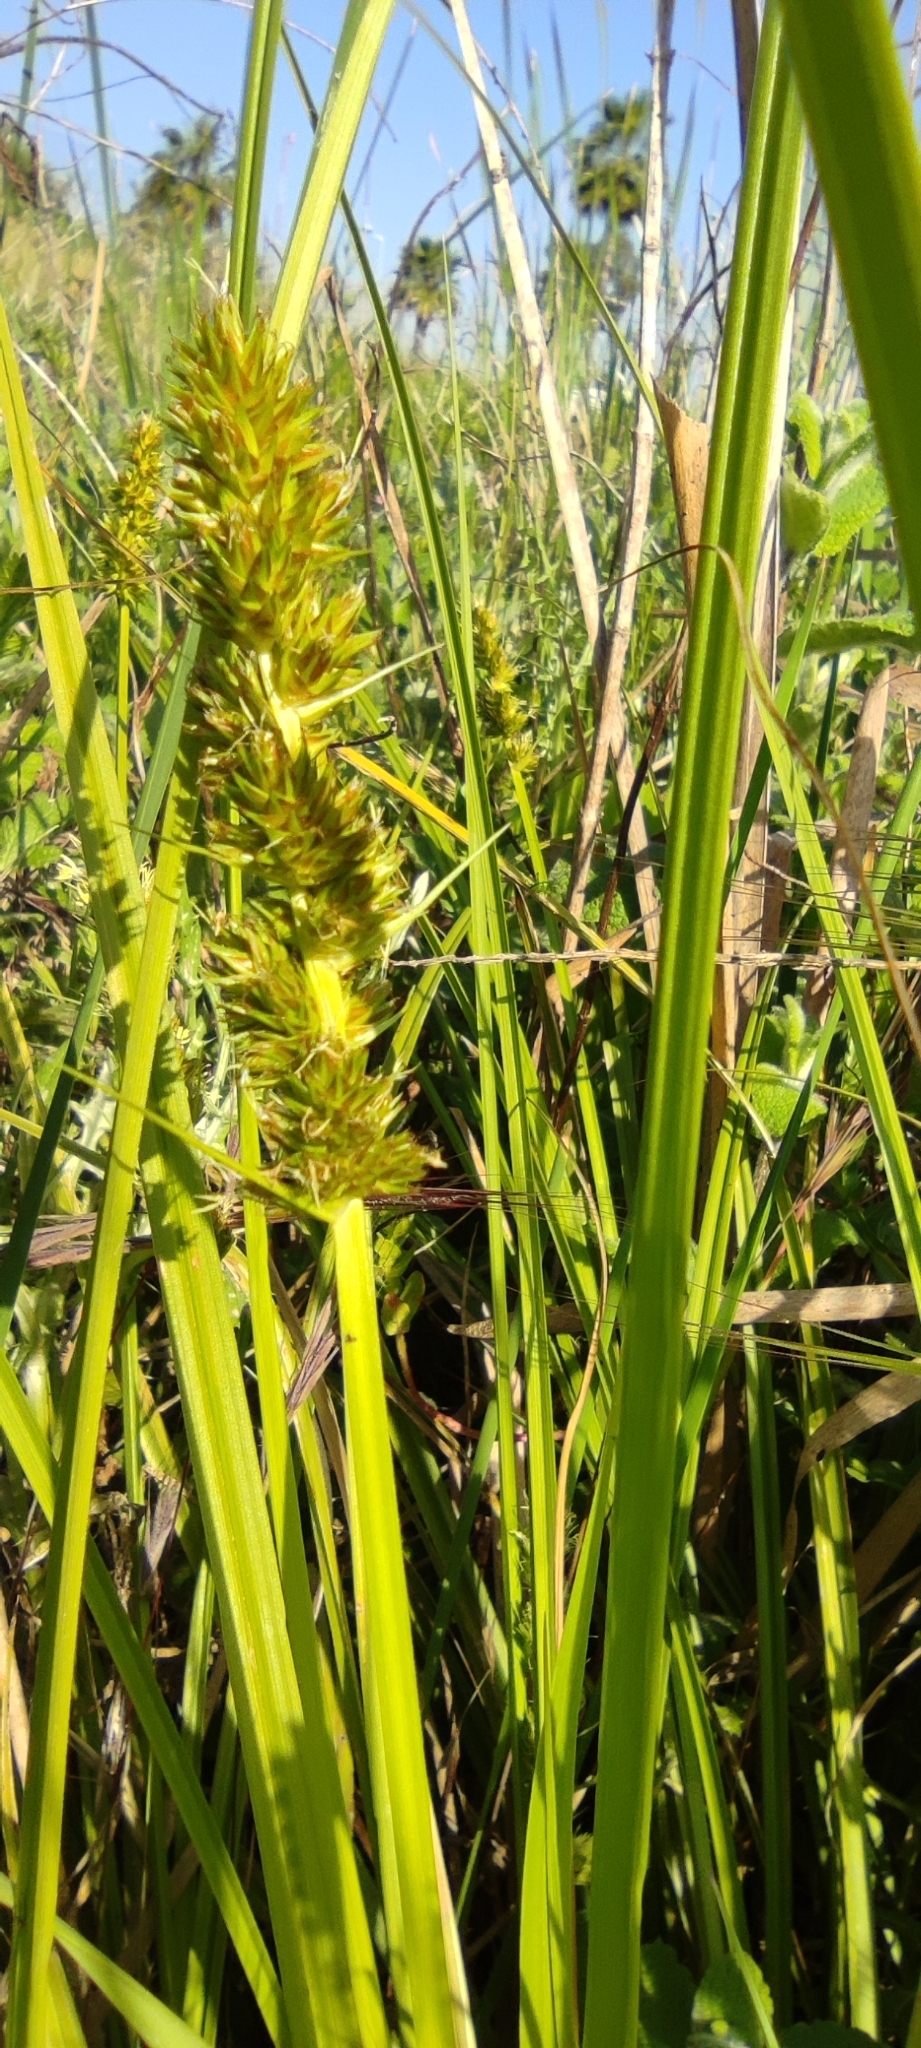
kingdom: Plantae
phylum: Tracheophyta
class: Liliopsida
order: Poales
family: Cyperaceae
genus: Carex
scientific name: Carex otrubae
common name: False fox-sedge
